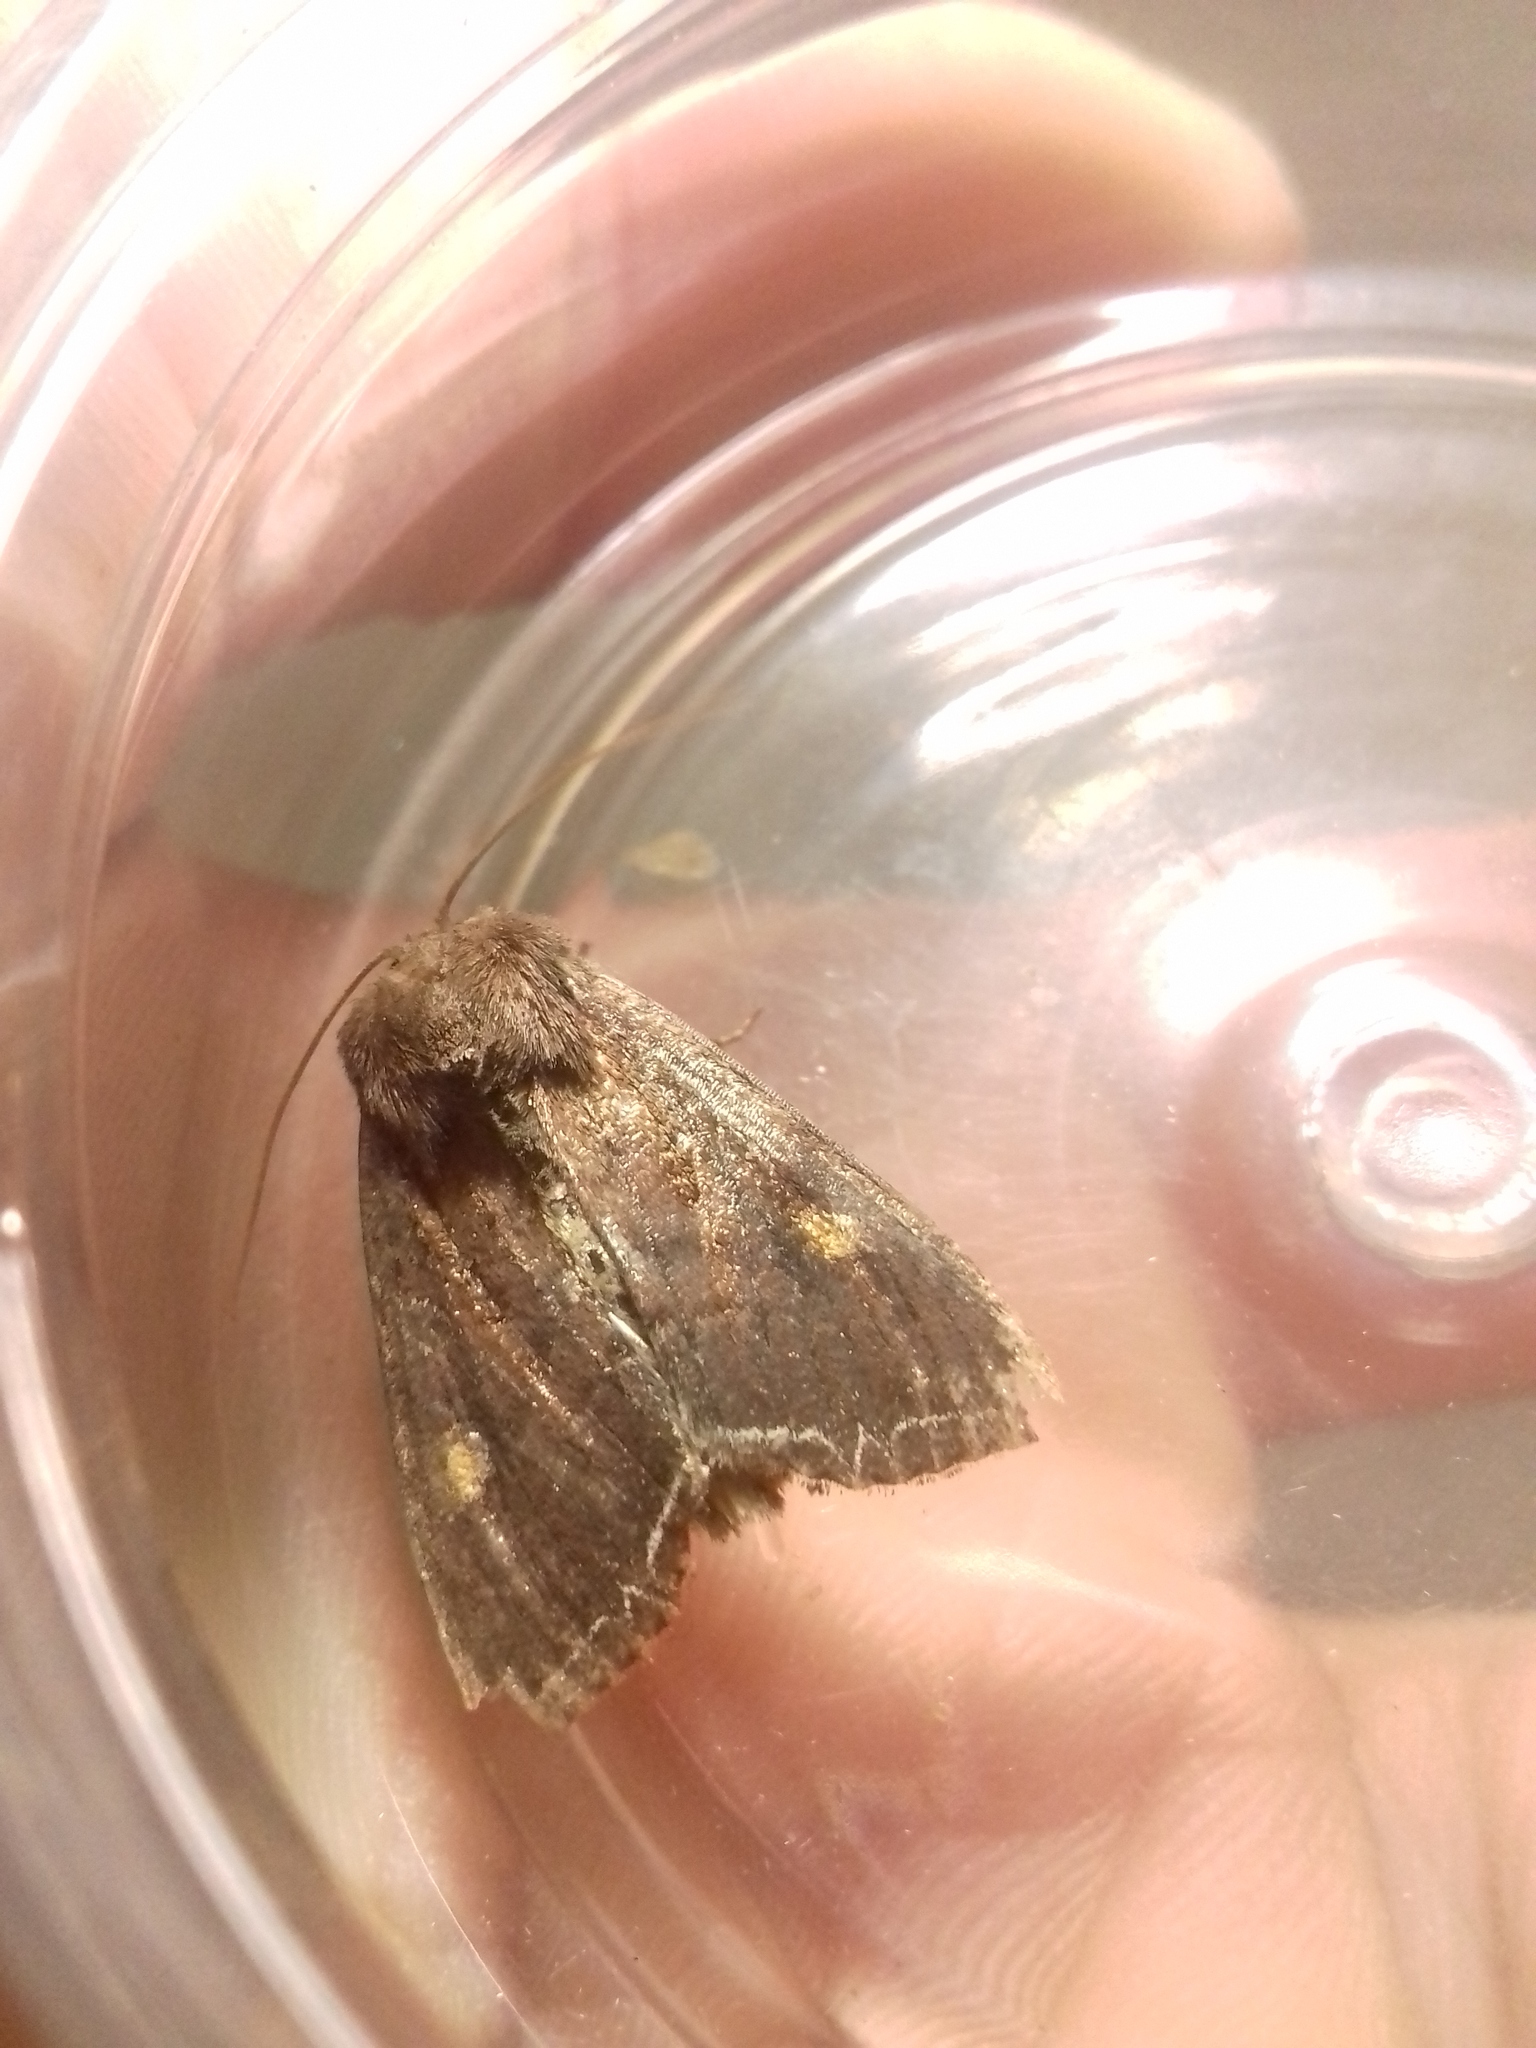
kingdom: Animalia
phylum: Arthropoda
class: Insecta
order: Lepidoptera
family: Noctuidae
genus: Lacanobia
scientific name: Lacanobia oleracea
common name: Bright-line brown-eye
